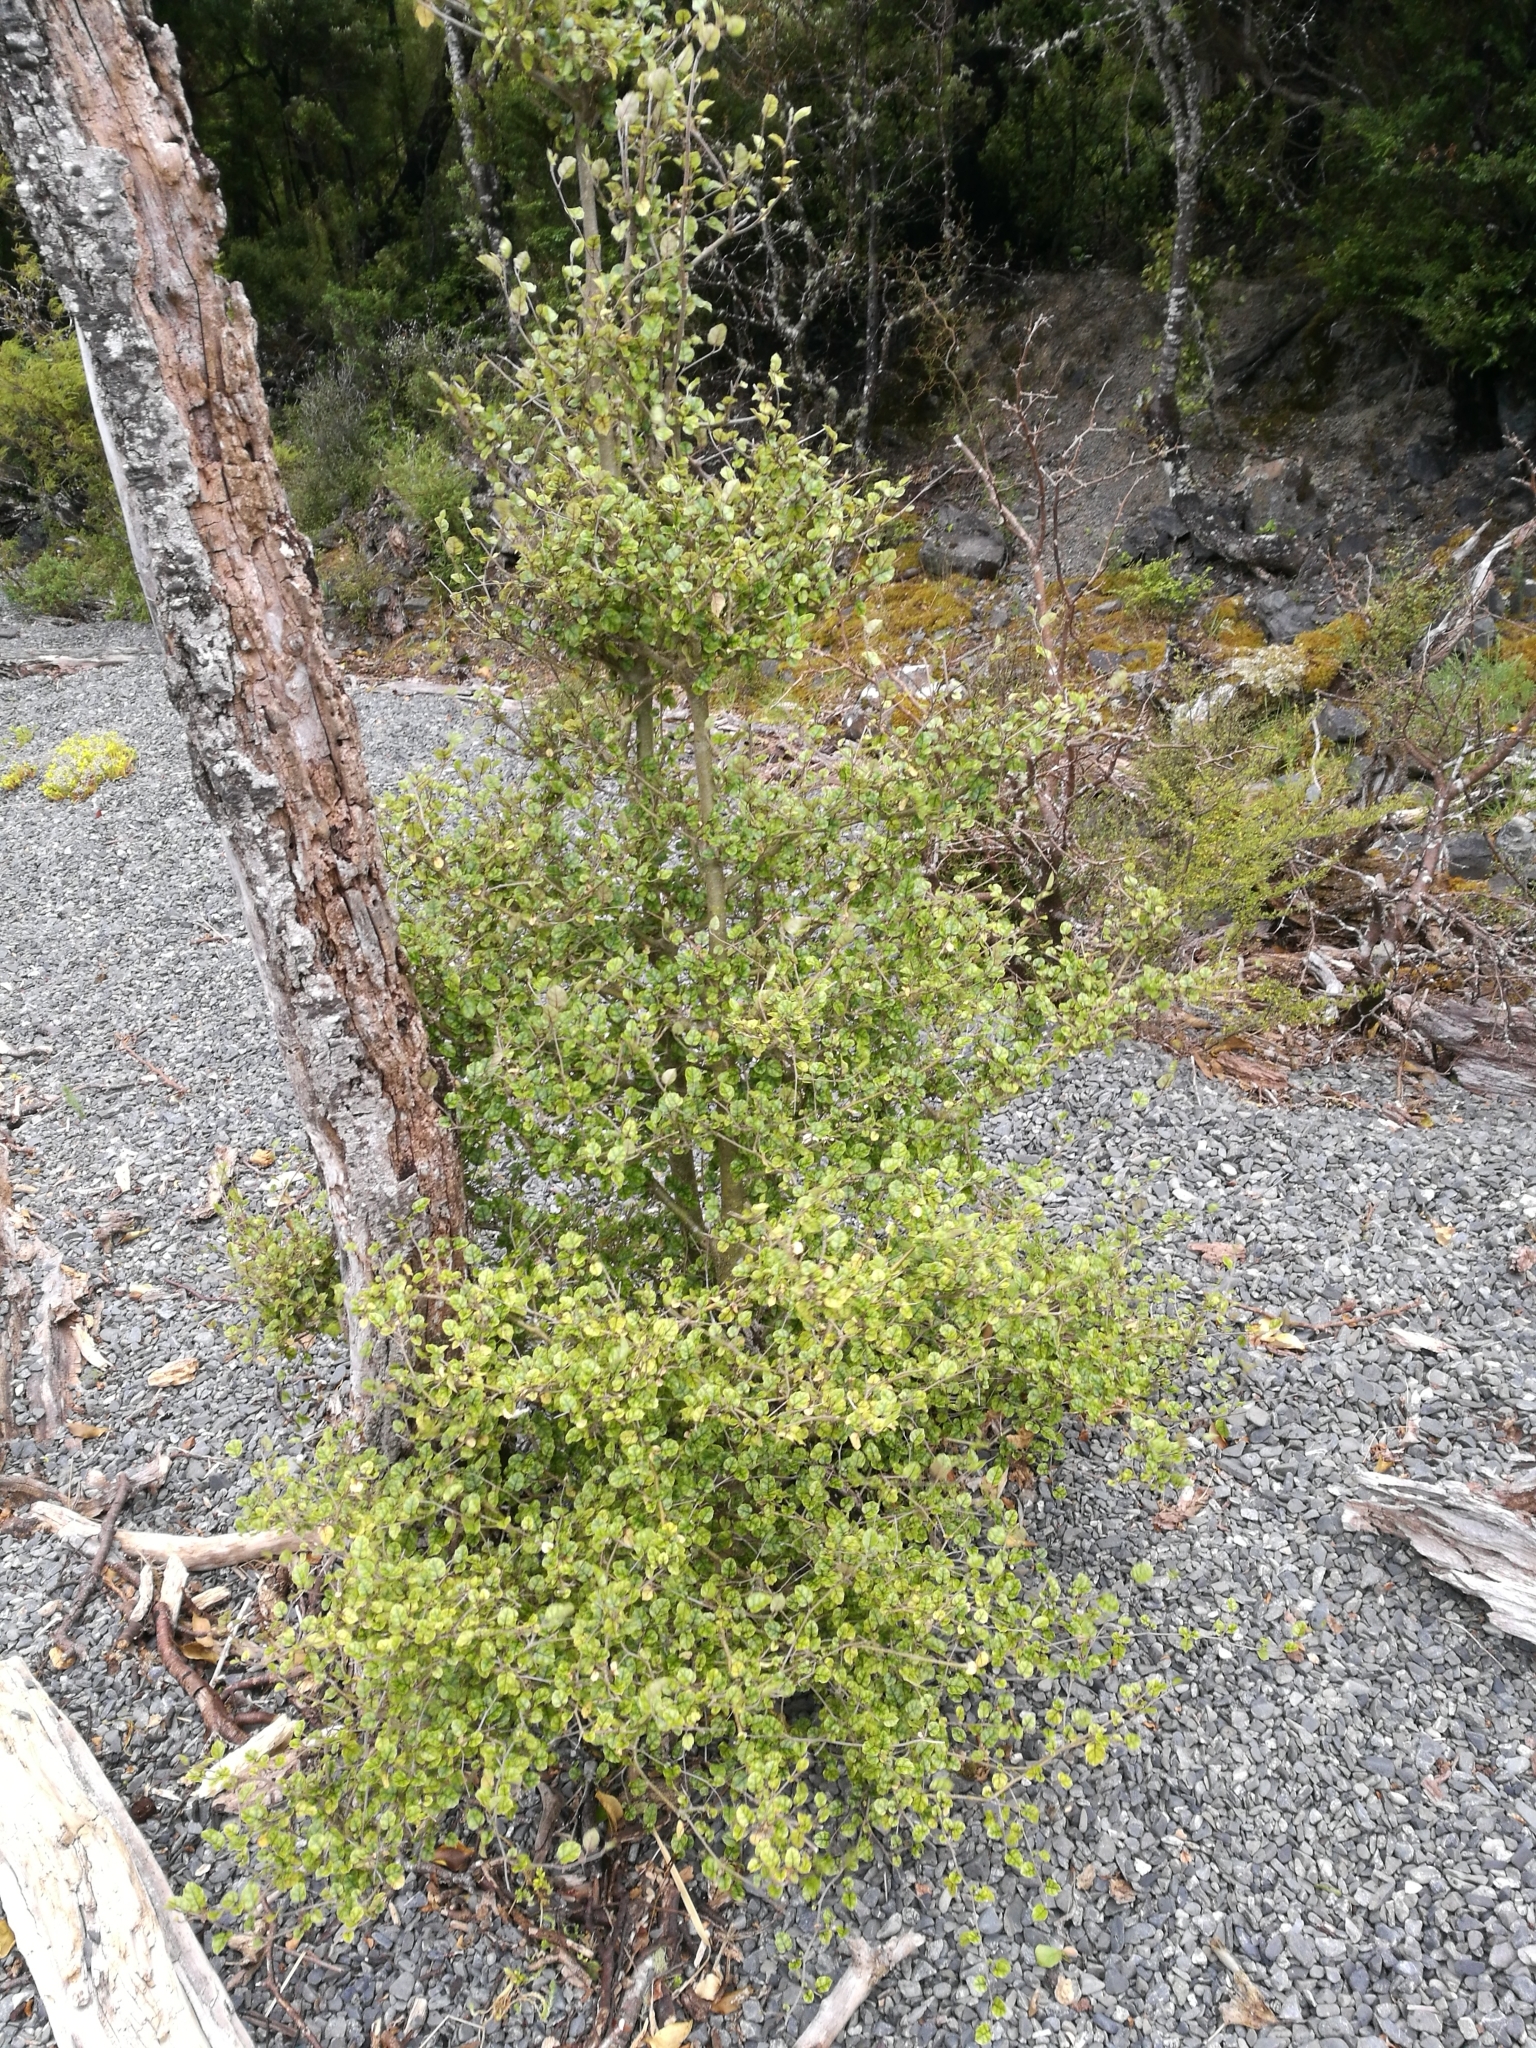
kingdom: Plantae
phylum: Tracheophyta
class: Magnoliopsida
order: Asterales
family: Rousseaceae
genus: Carpodetus
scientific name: Carpodetus serratus
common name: White mapau
